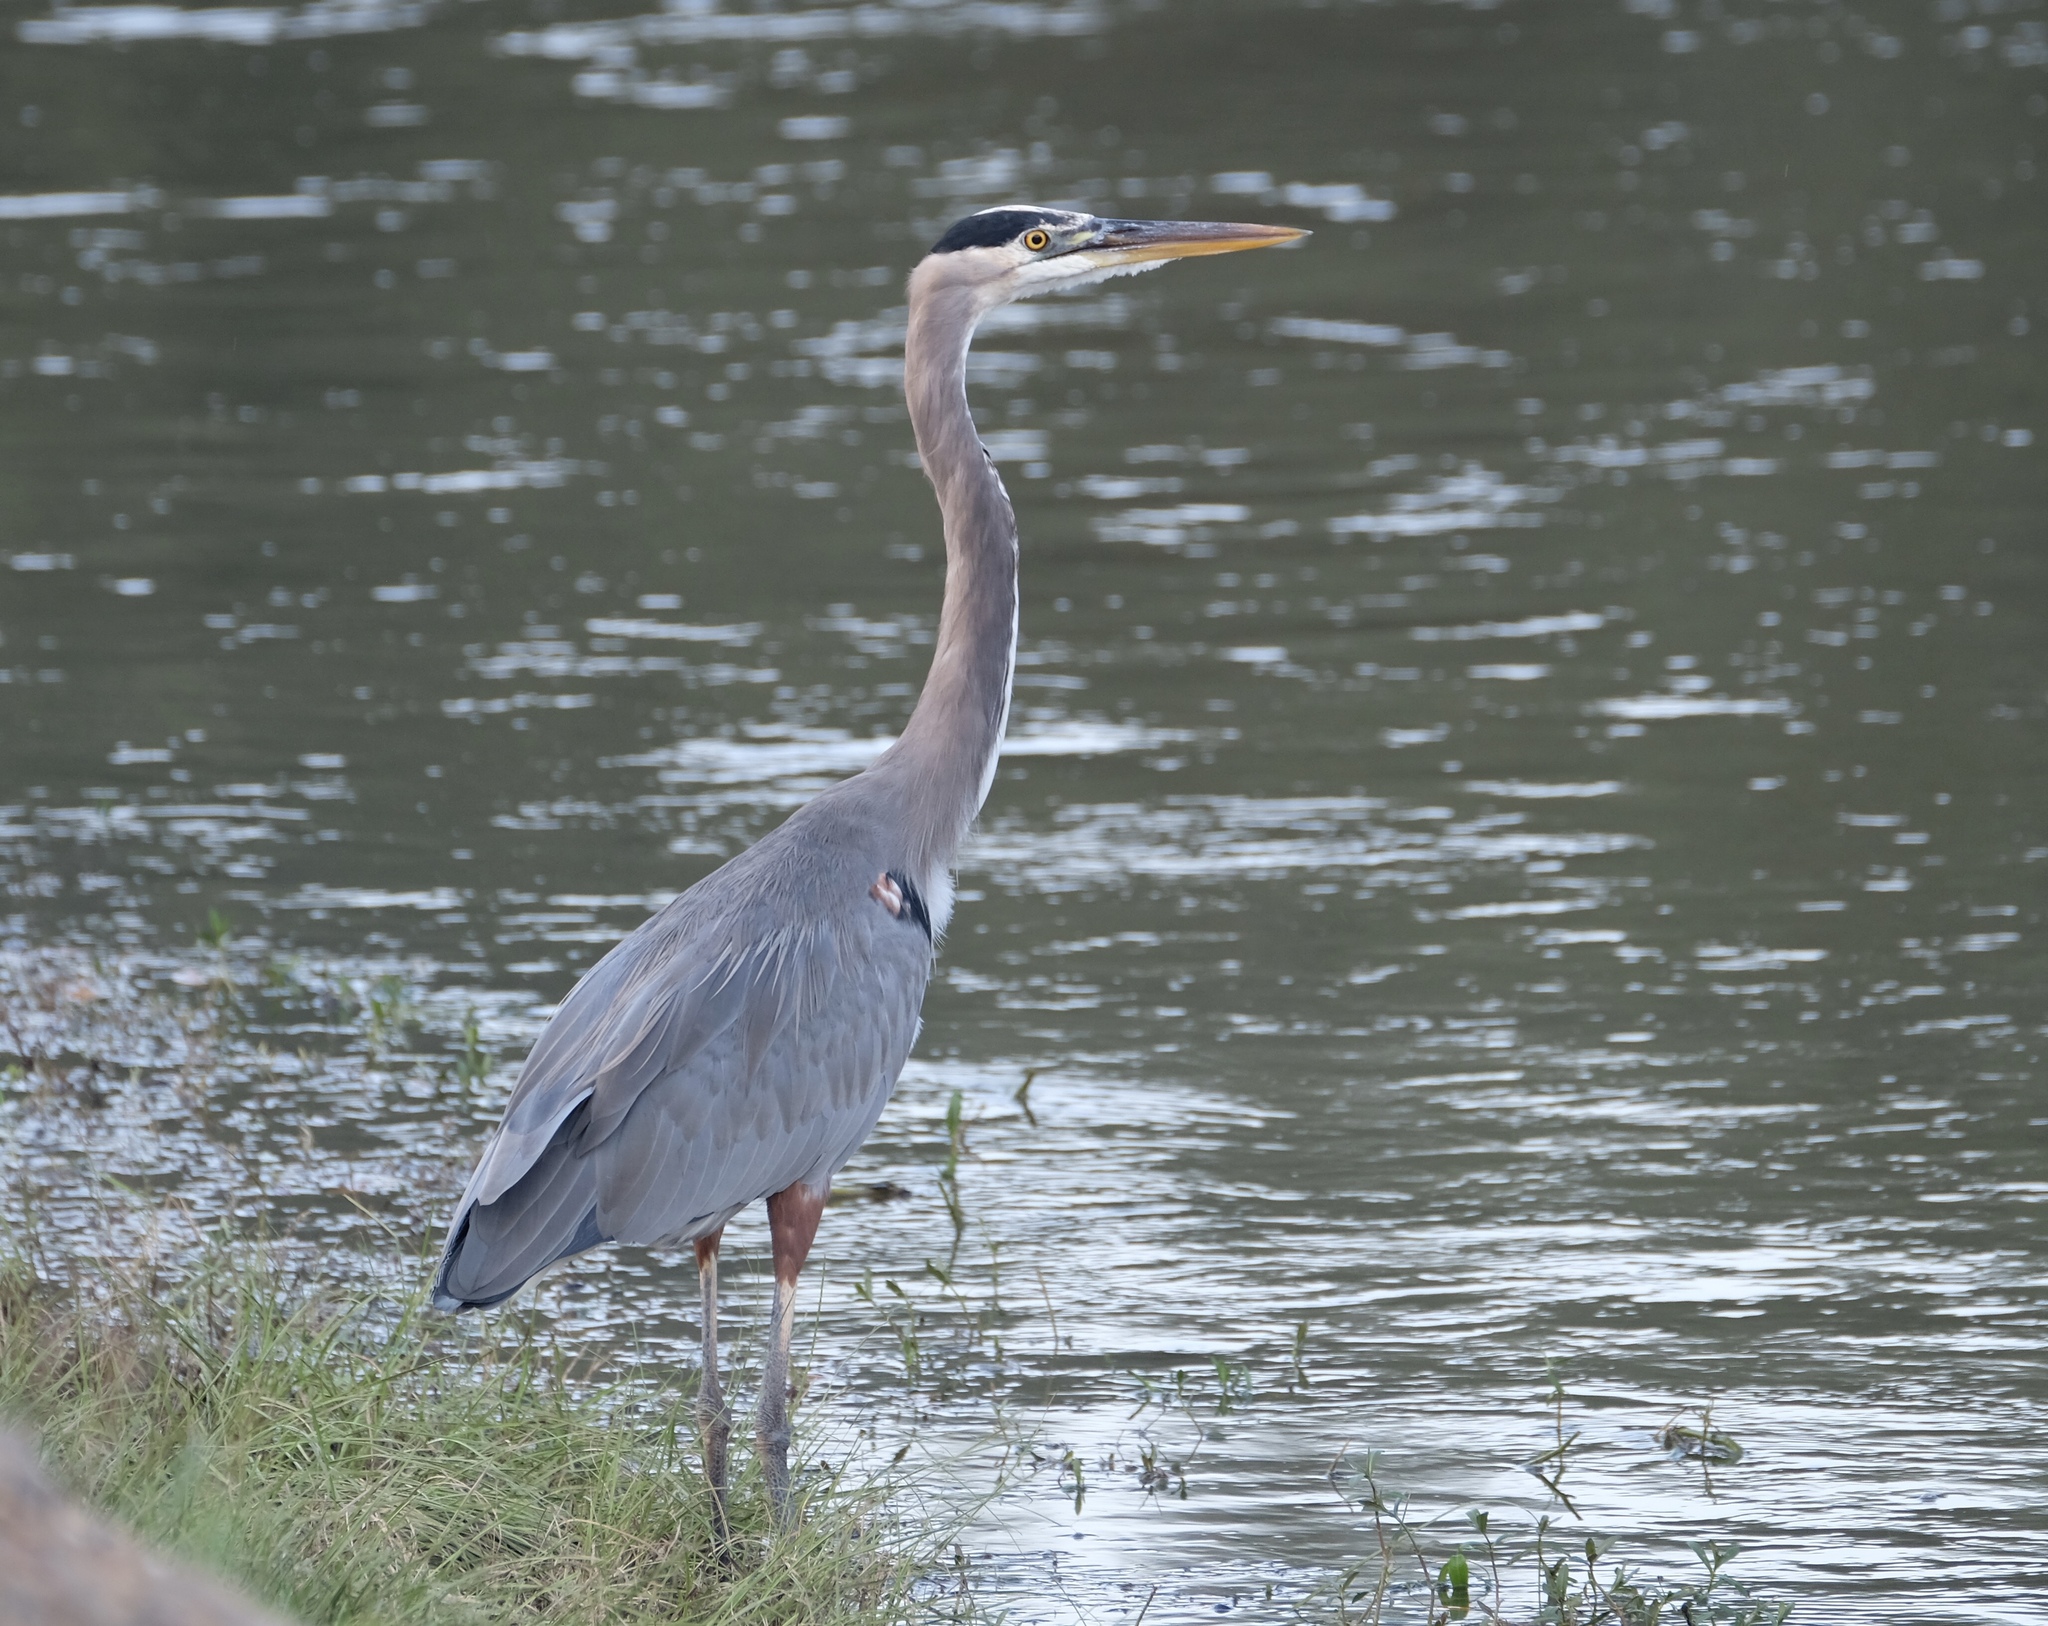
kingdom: Animalia
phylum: Chordata
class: Aves
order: Pelecaniformes
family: Ardeidae
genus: Ardea
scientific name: Ardea herodias
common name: Great blue heron
